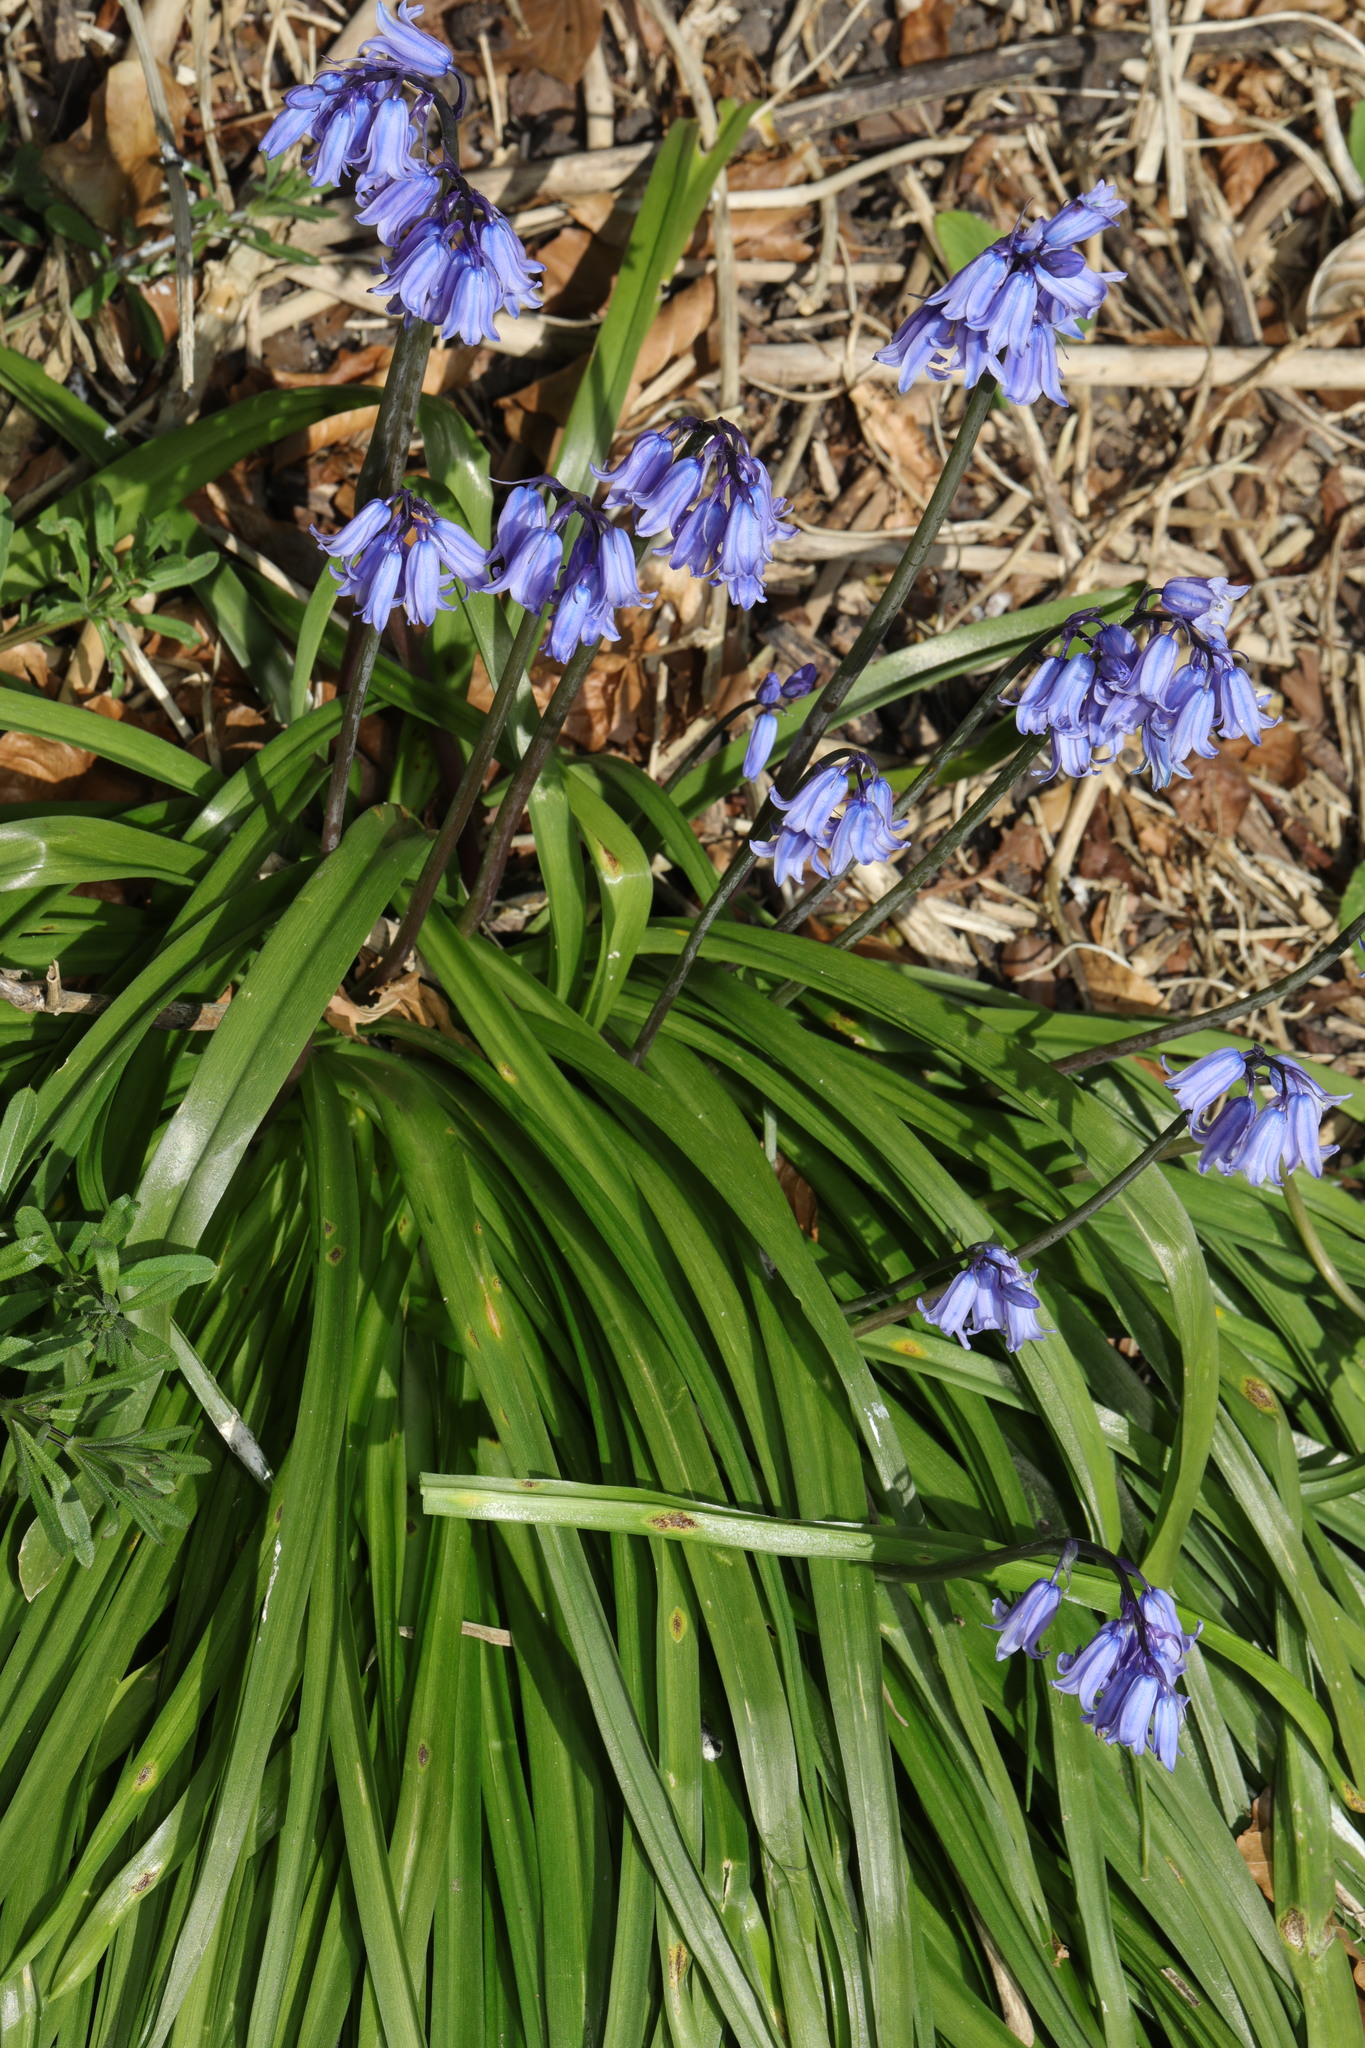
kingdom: Plantae
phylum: Tracheophyta
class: Liliopsida
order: Asparagales
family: Asparagaceae
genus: Hyacinthoides
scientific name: Hyacinthoides hispanica
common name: Spanish bluebell
